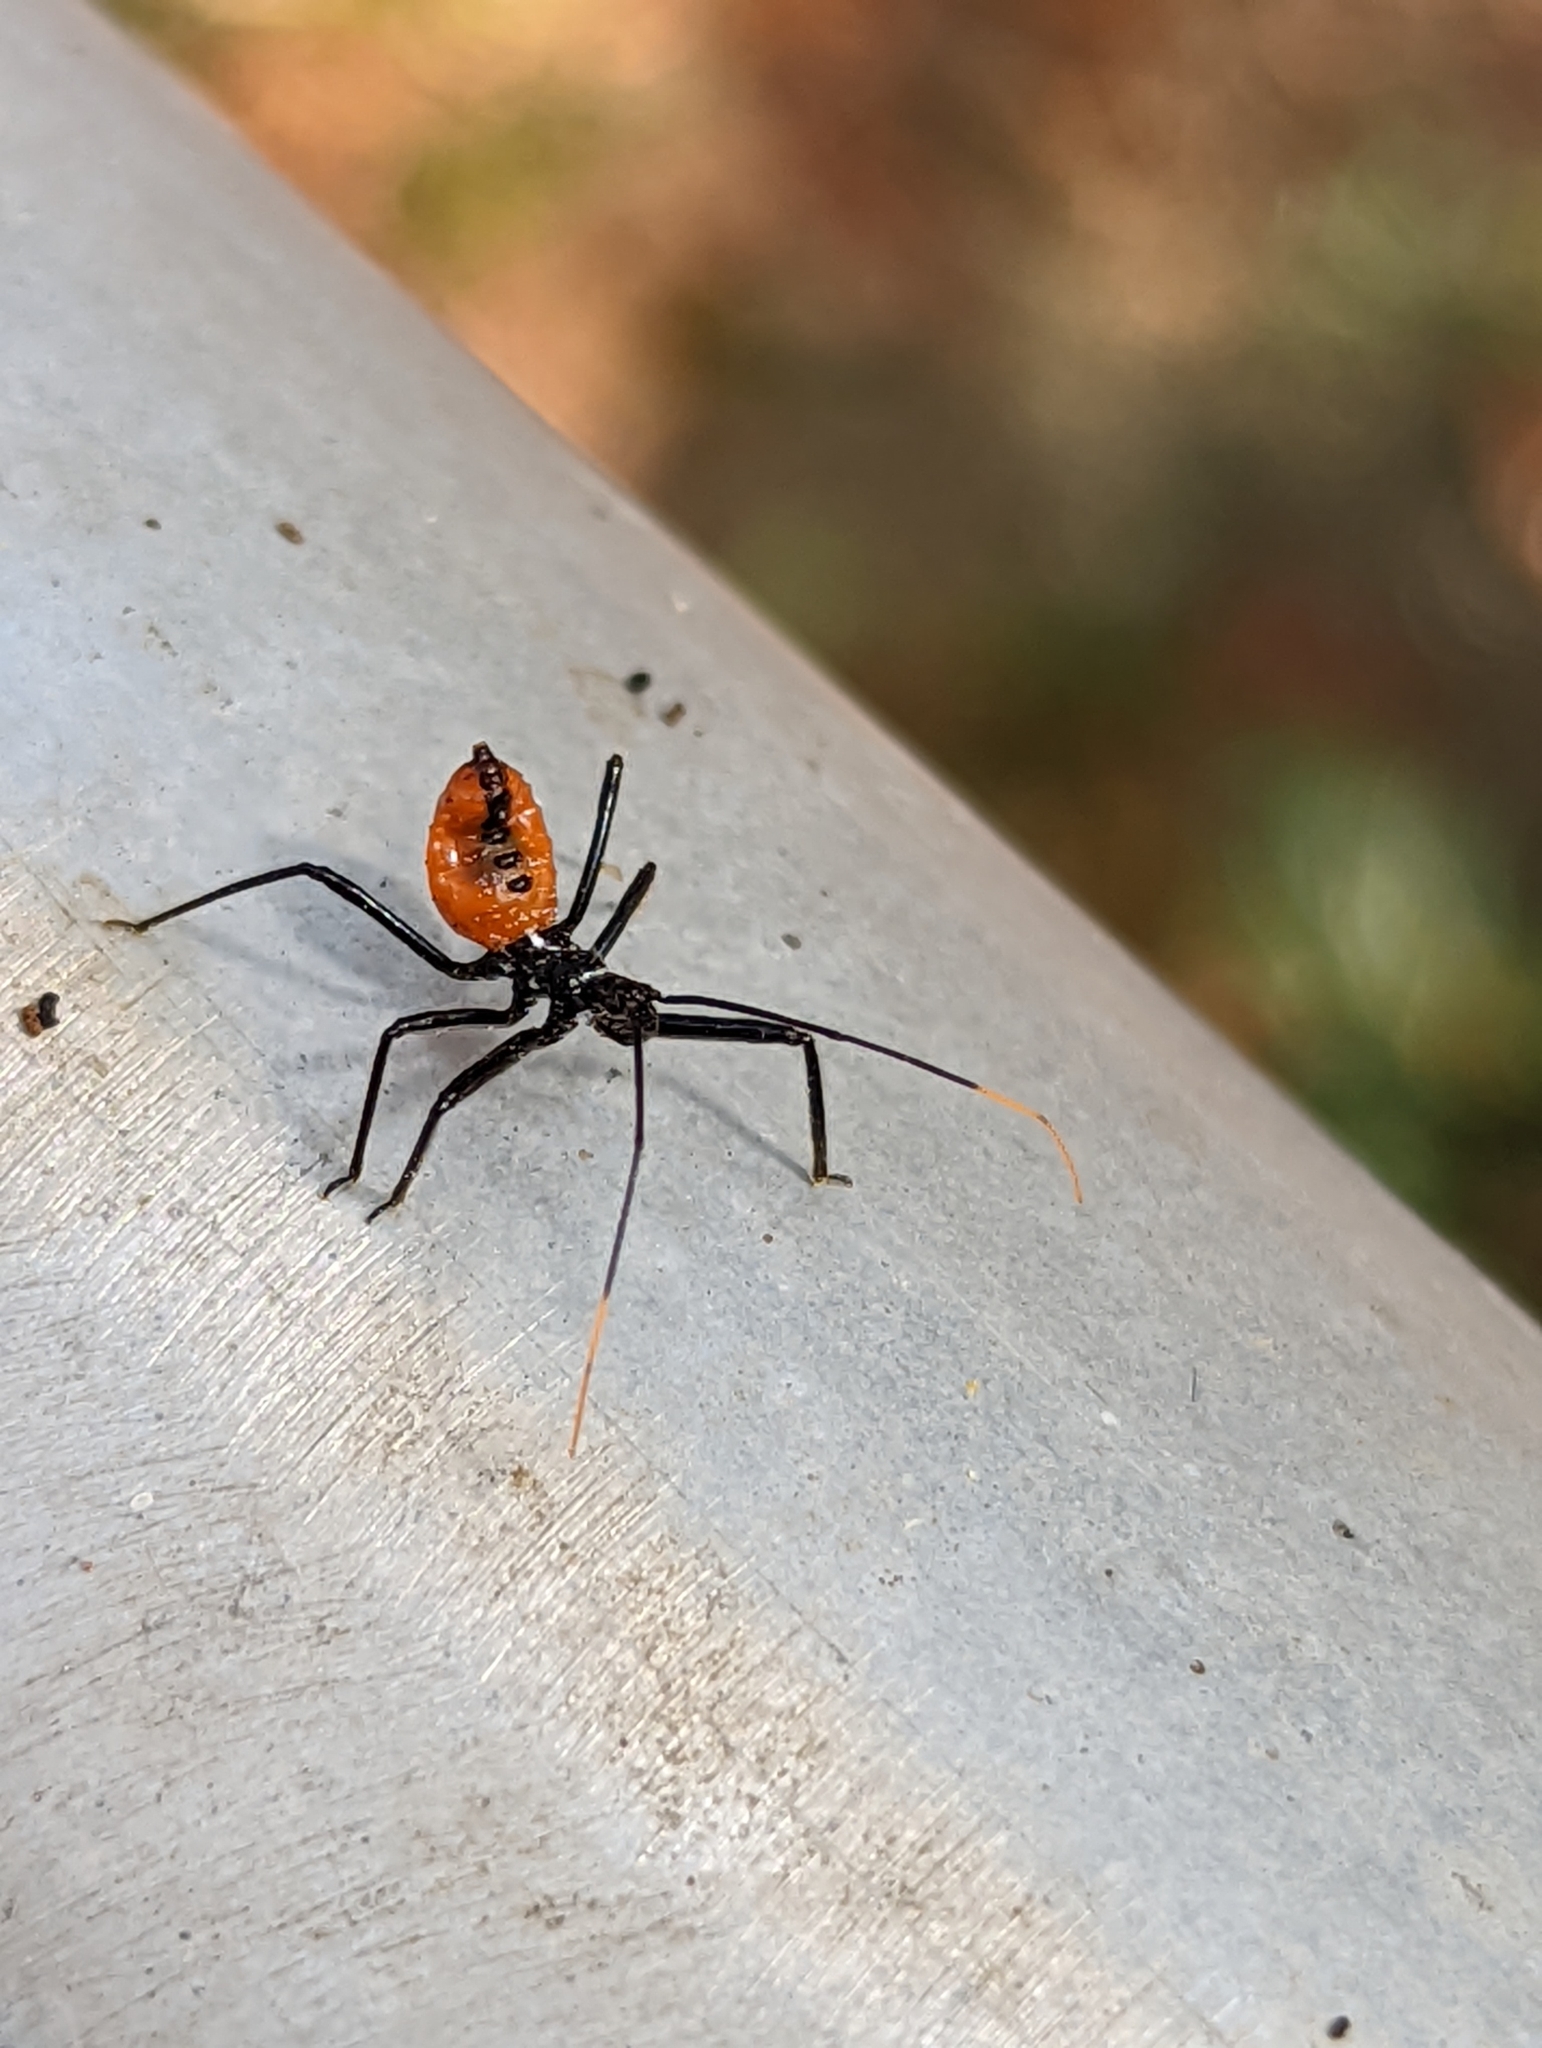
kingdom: Animalia
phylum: Arthropoda
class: Insecta
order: Hemiptera
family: Reduviidae
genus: Arilus
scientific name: Arilus cristatus
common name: North american wheel bug
